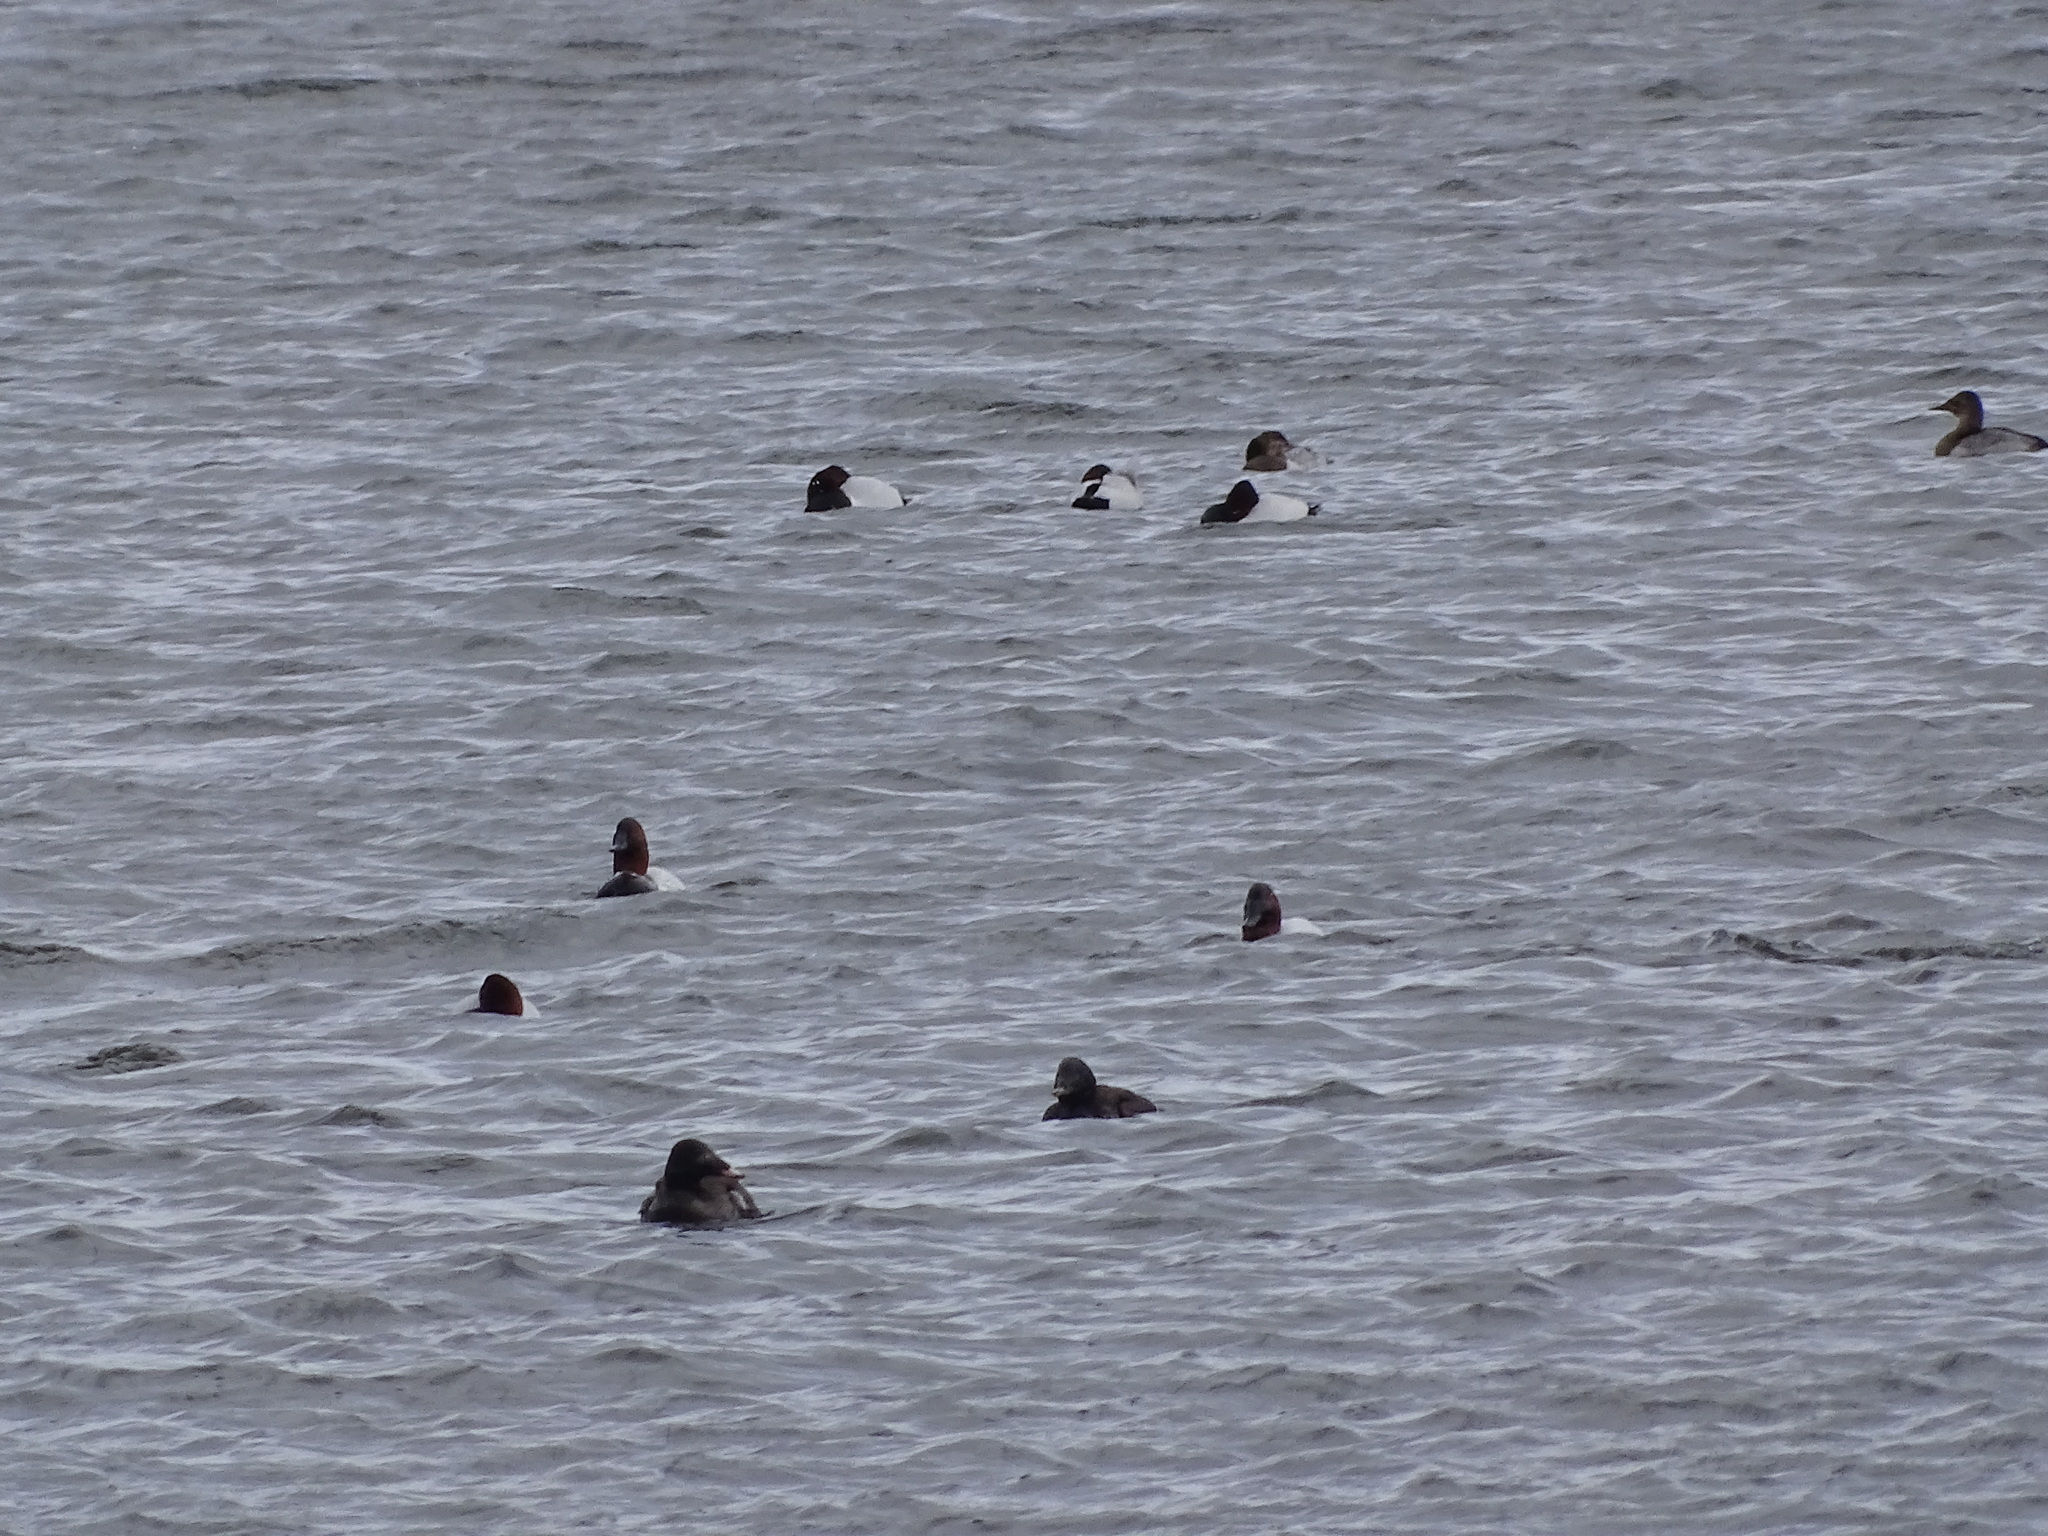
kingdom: Animalia
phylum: Chordata
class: Aves
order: Anseriformes
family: Anatidae
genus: Aythya
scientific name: Aythya valisineria
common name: Canvasback
